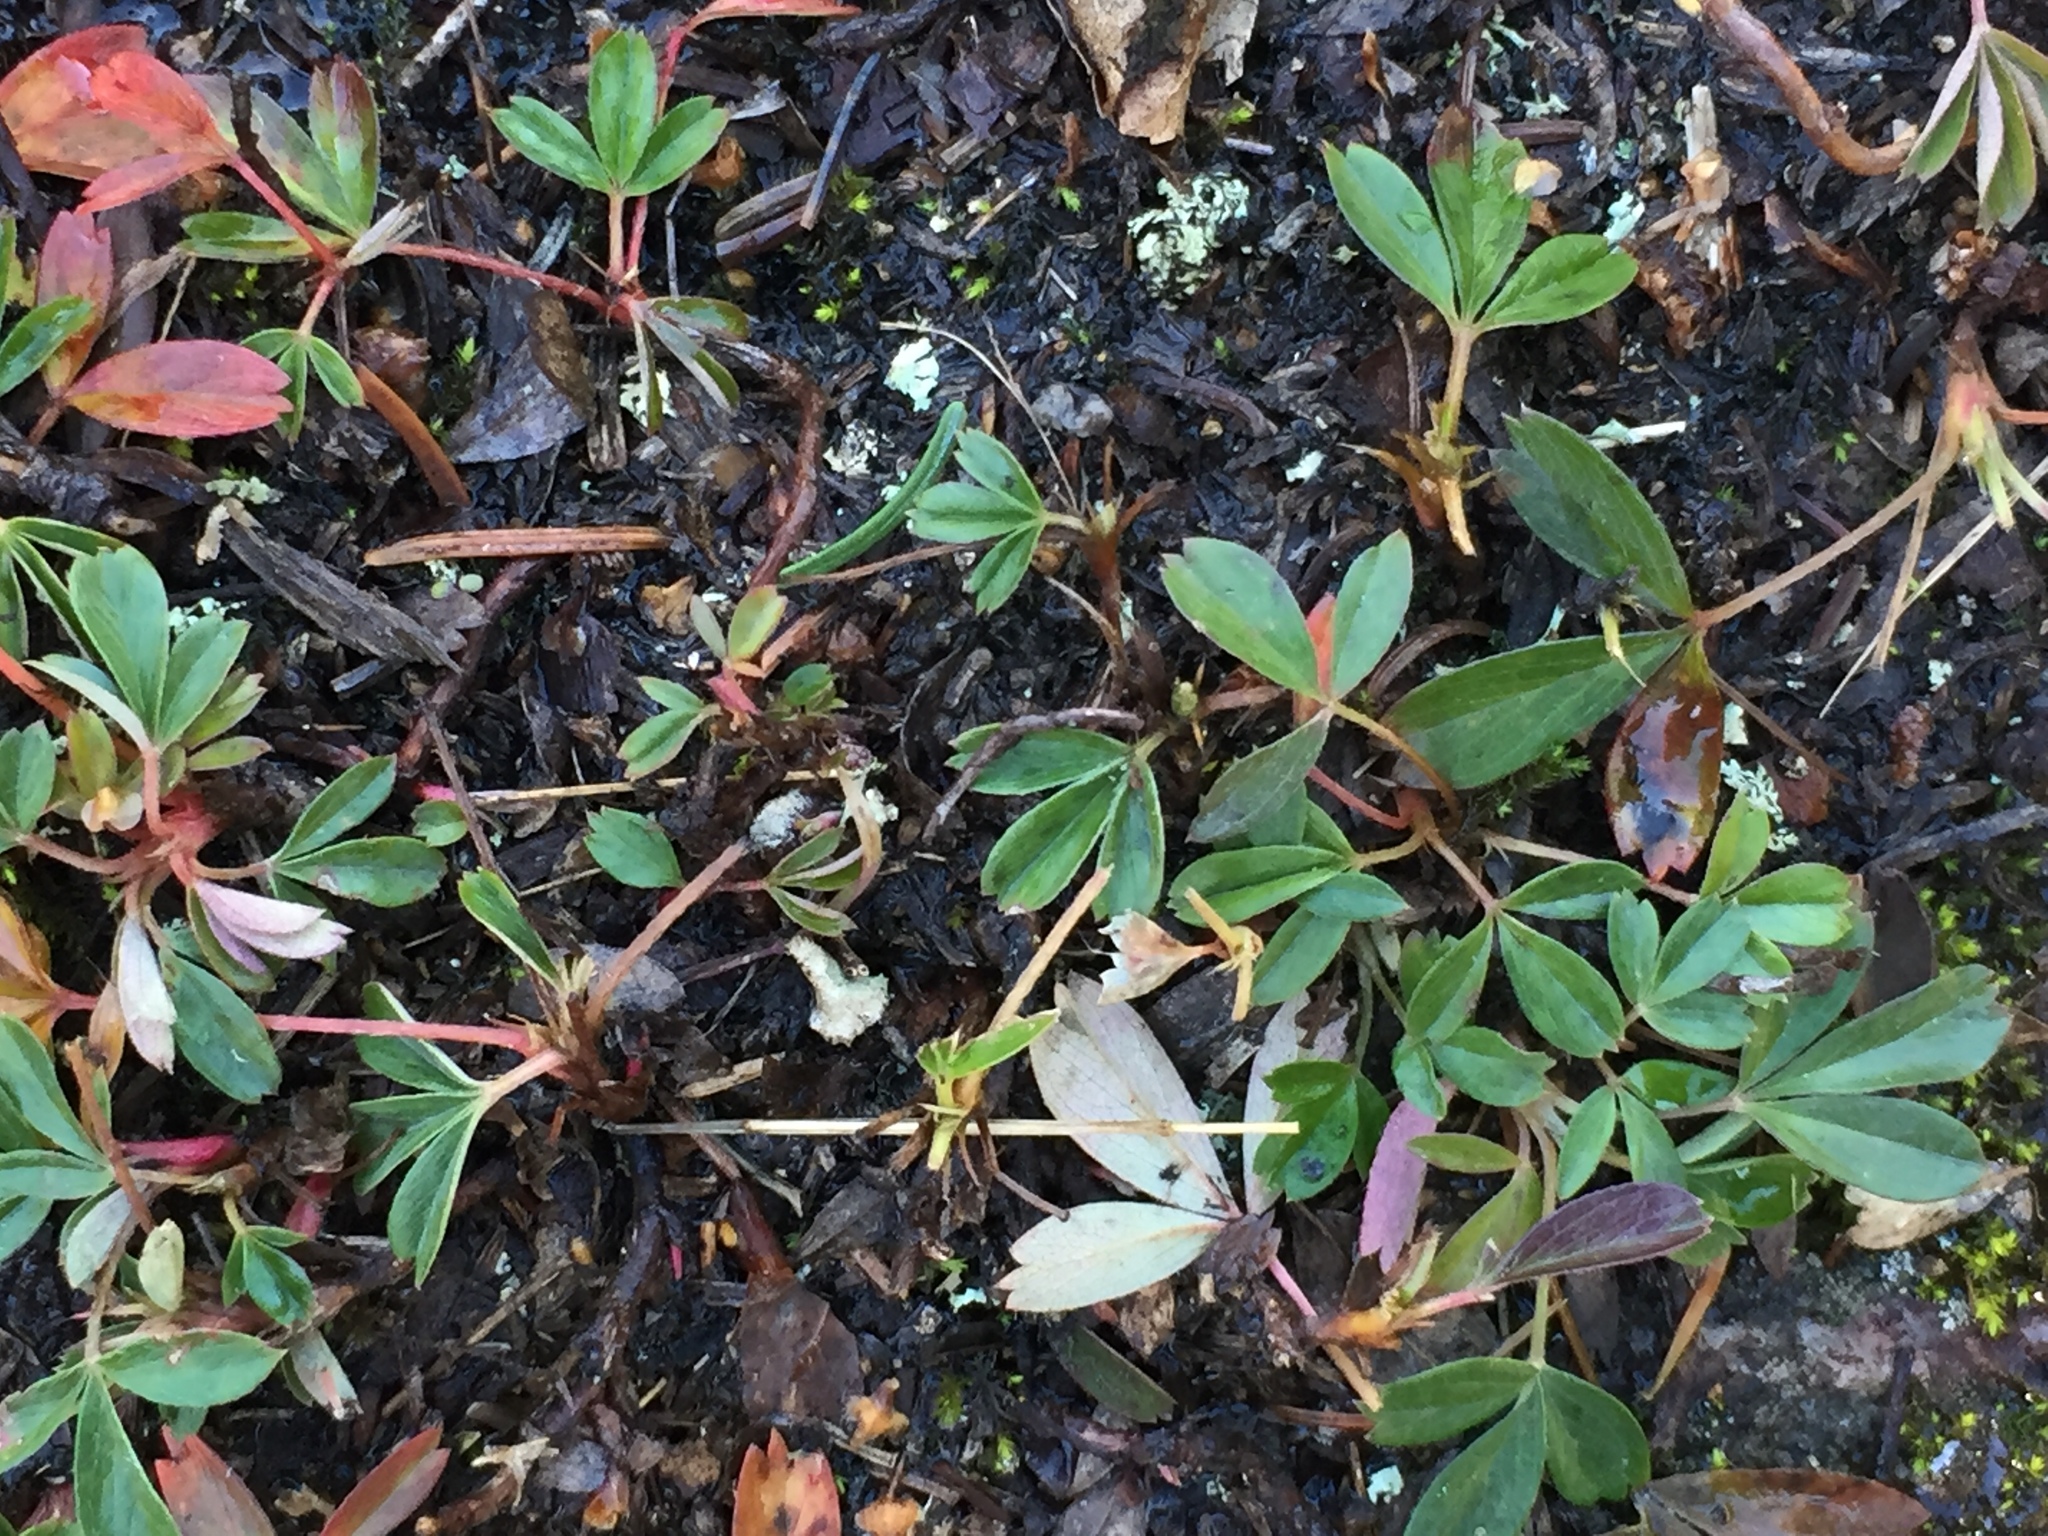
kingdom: Plantae
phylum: Tracheophyta
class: Magnoliopsida
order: Rosales
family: Rosaceae
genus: Sibbaldia
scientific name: Sibbaldia tridentata
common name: Three-toothed cinquefoil
